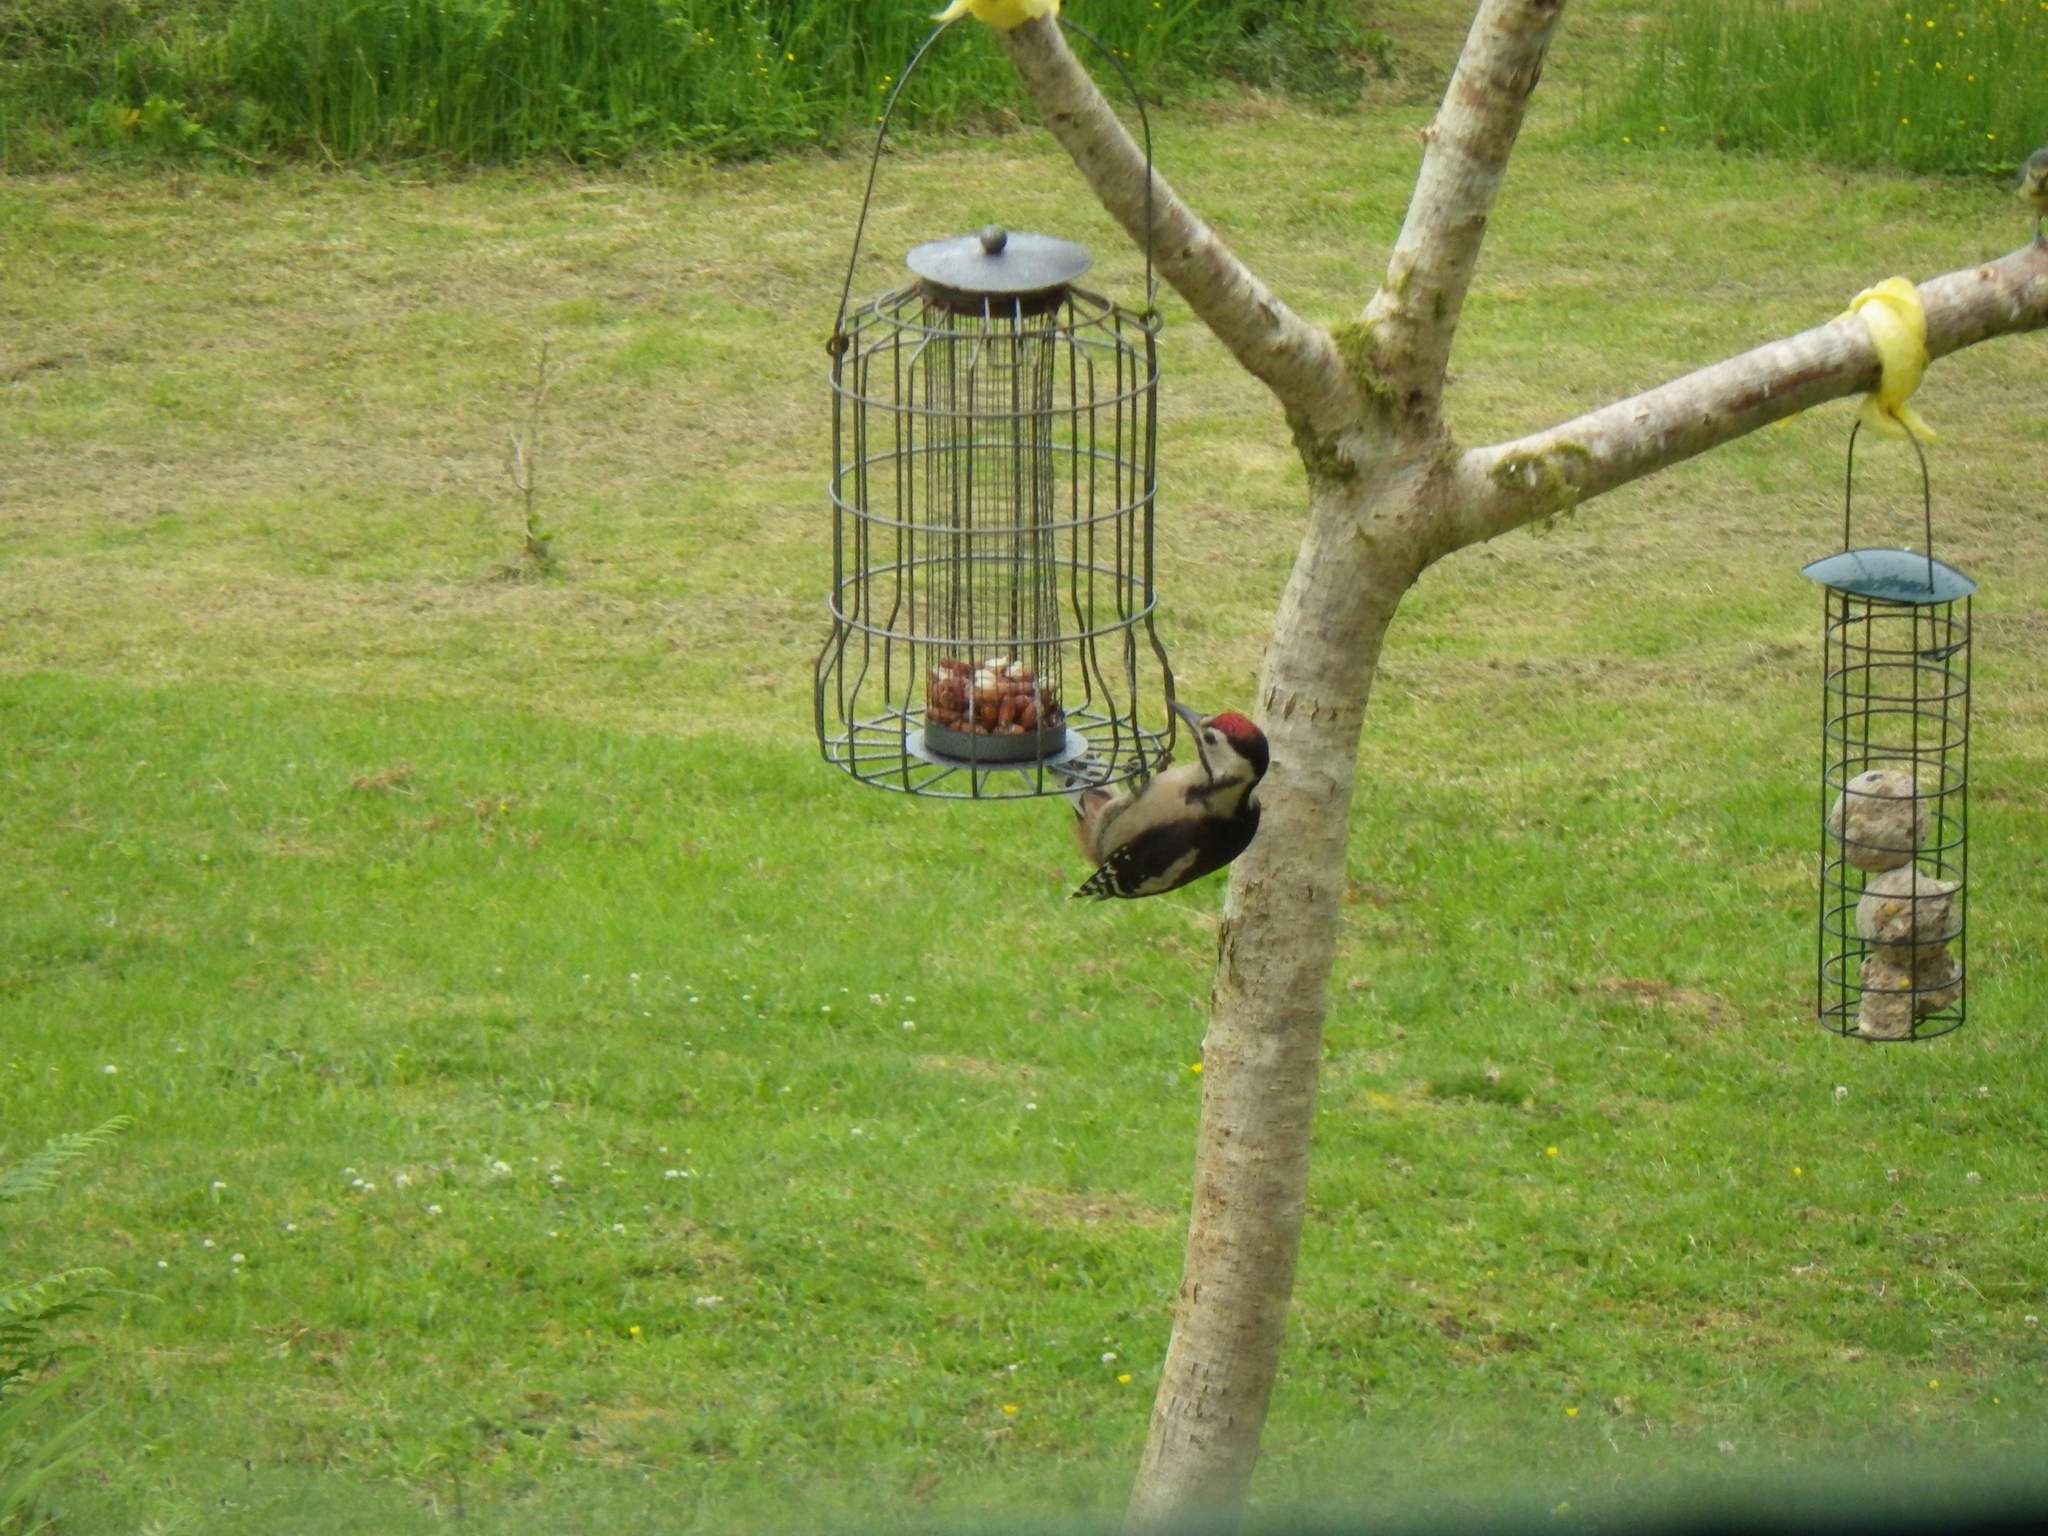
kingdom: Animalia
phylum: Chordata
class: Aves
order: Piciformes
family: Picidae
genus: Dendrocopos
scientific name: Dendrocopos major
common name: Great spotted woodpecker
